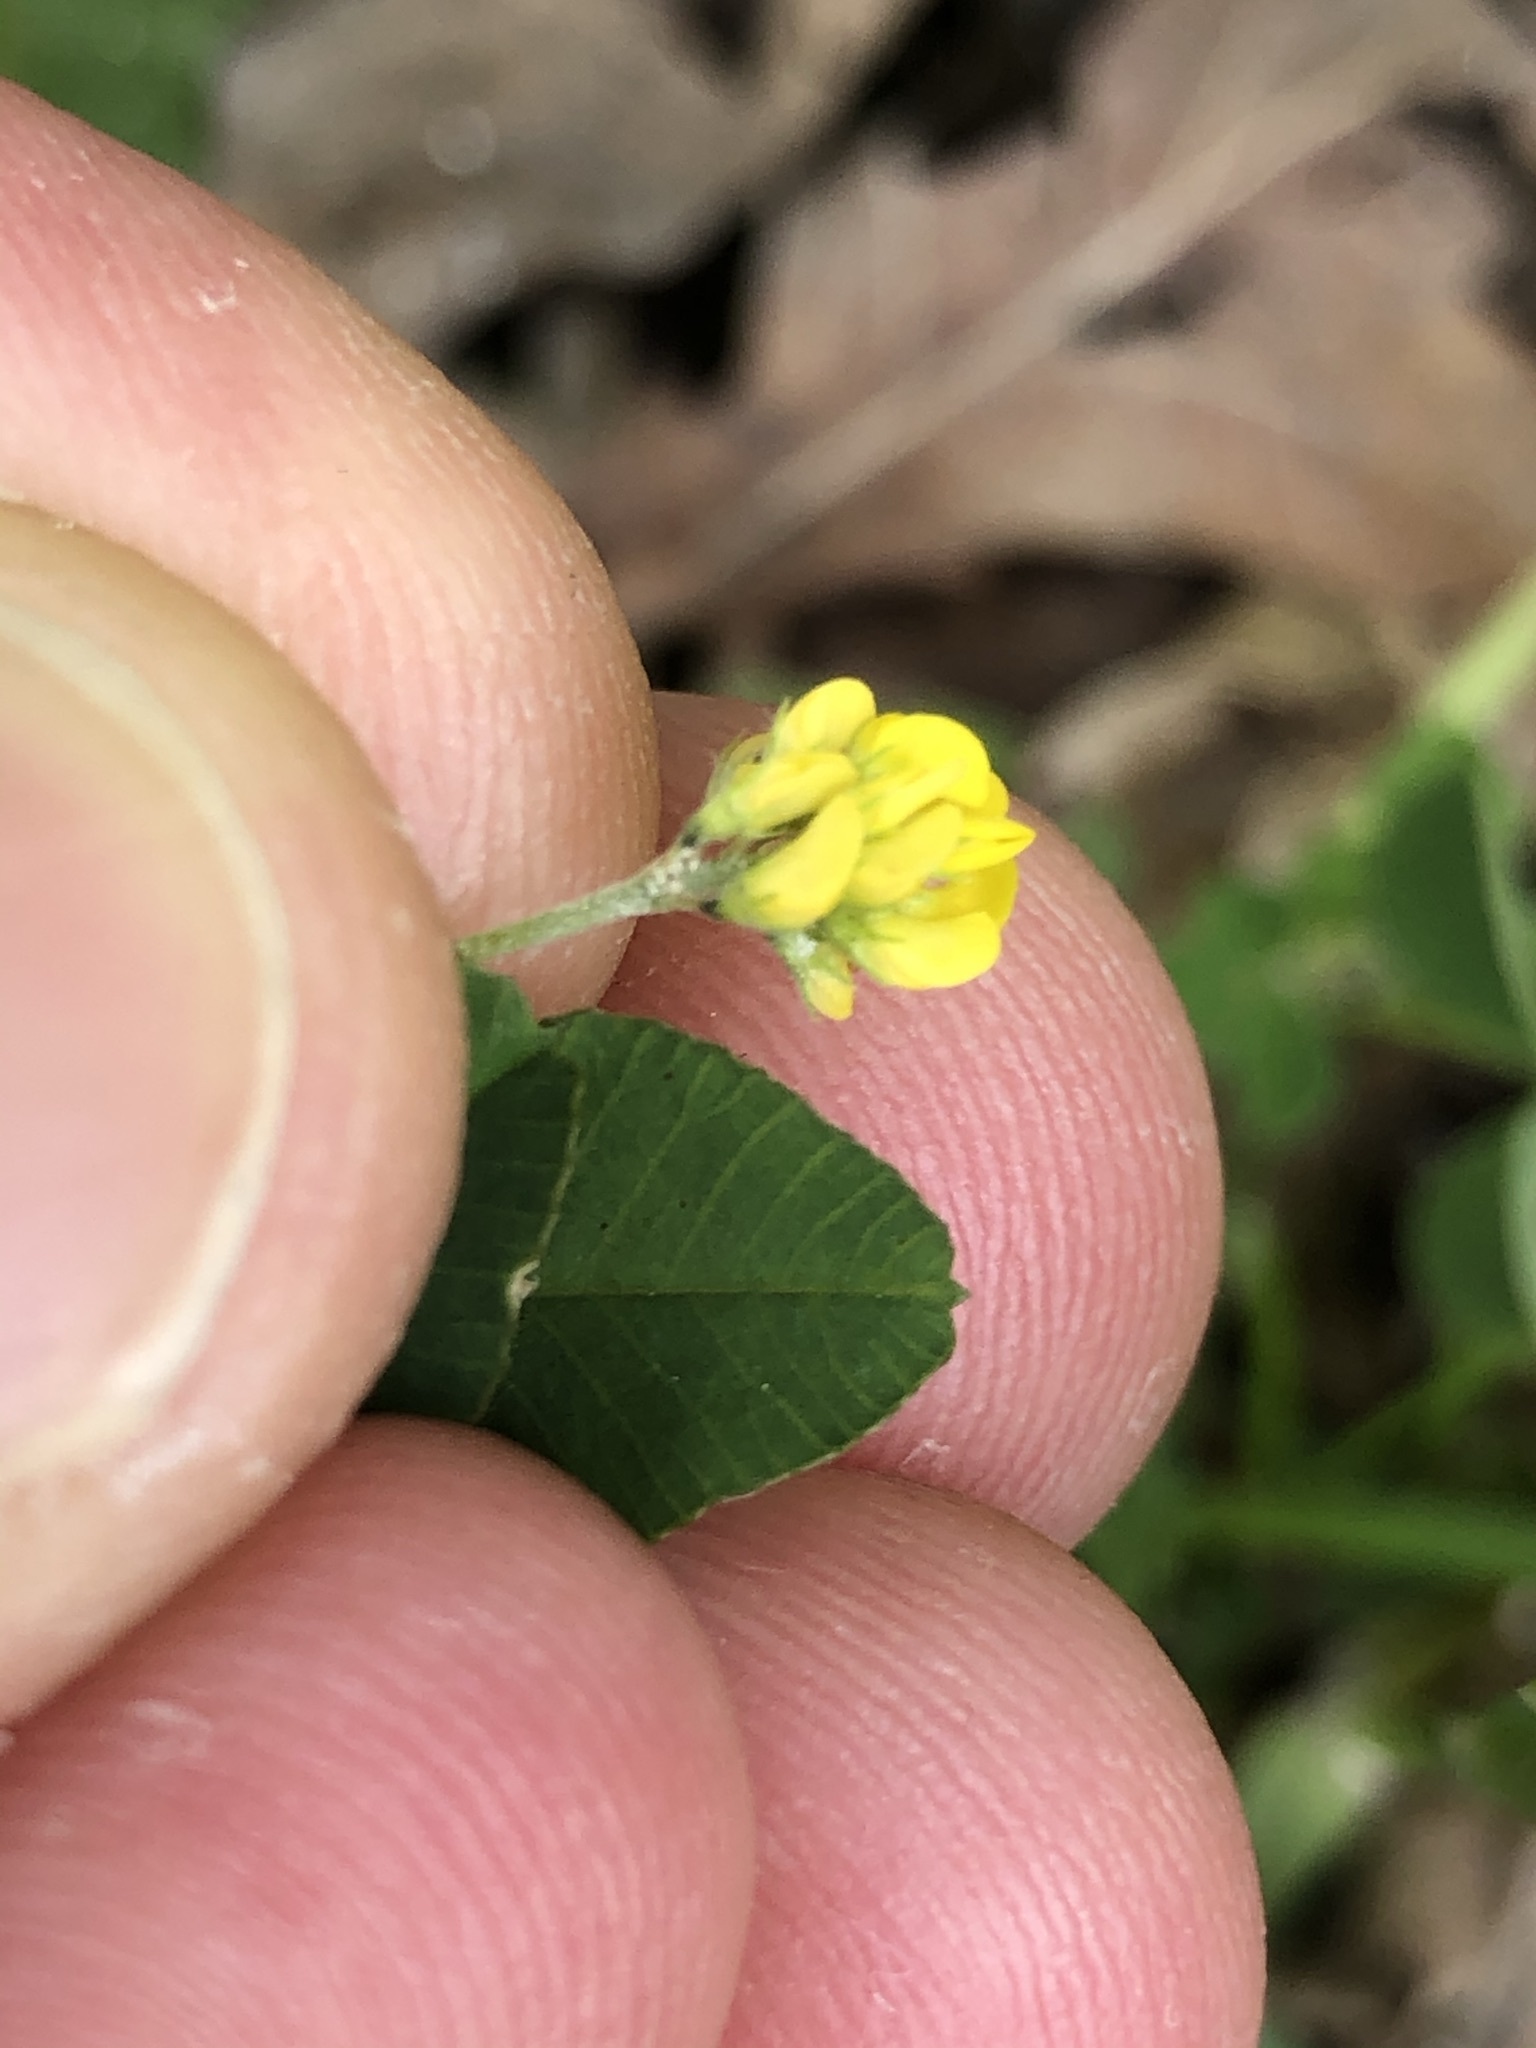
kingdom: Plantae
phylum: Tracheophyta
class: Magnoliopsida
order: Fabales
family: Fabaceae
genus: Medicago
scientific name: Medicago lupulina
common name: Black medick
